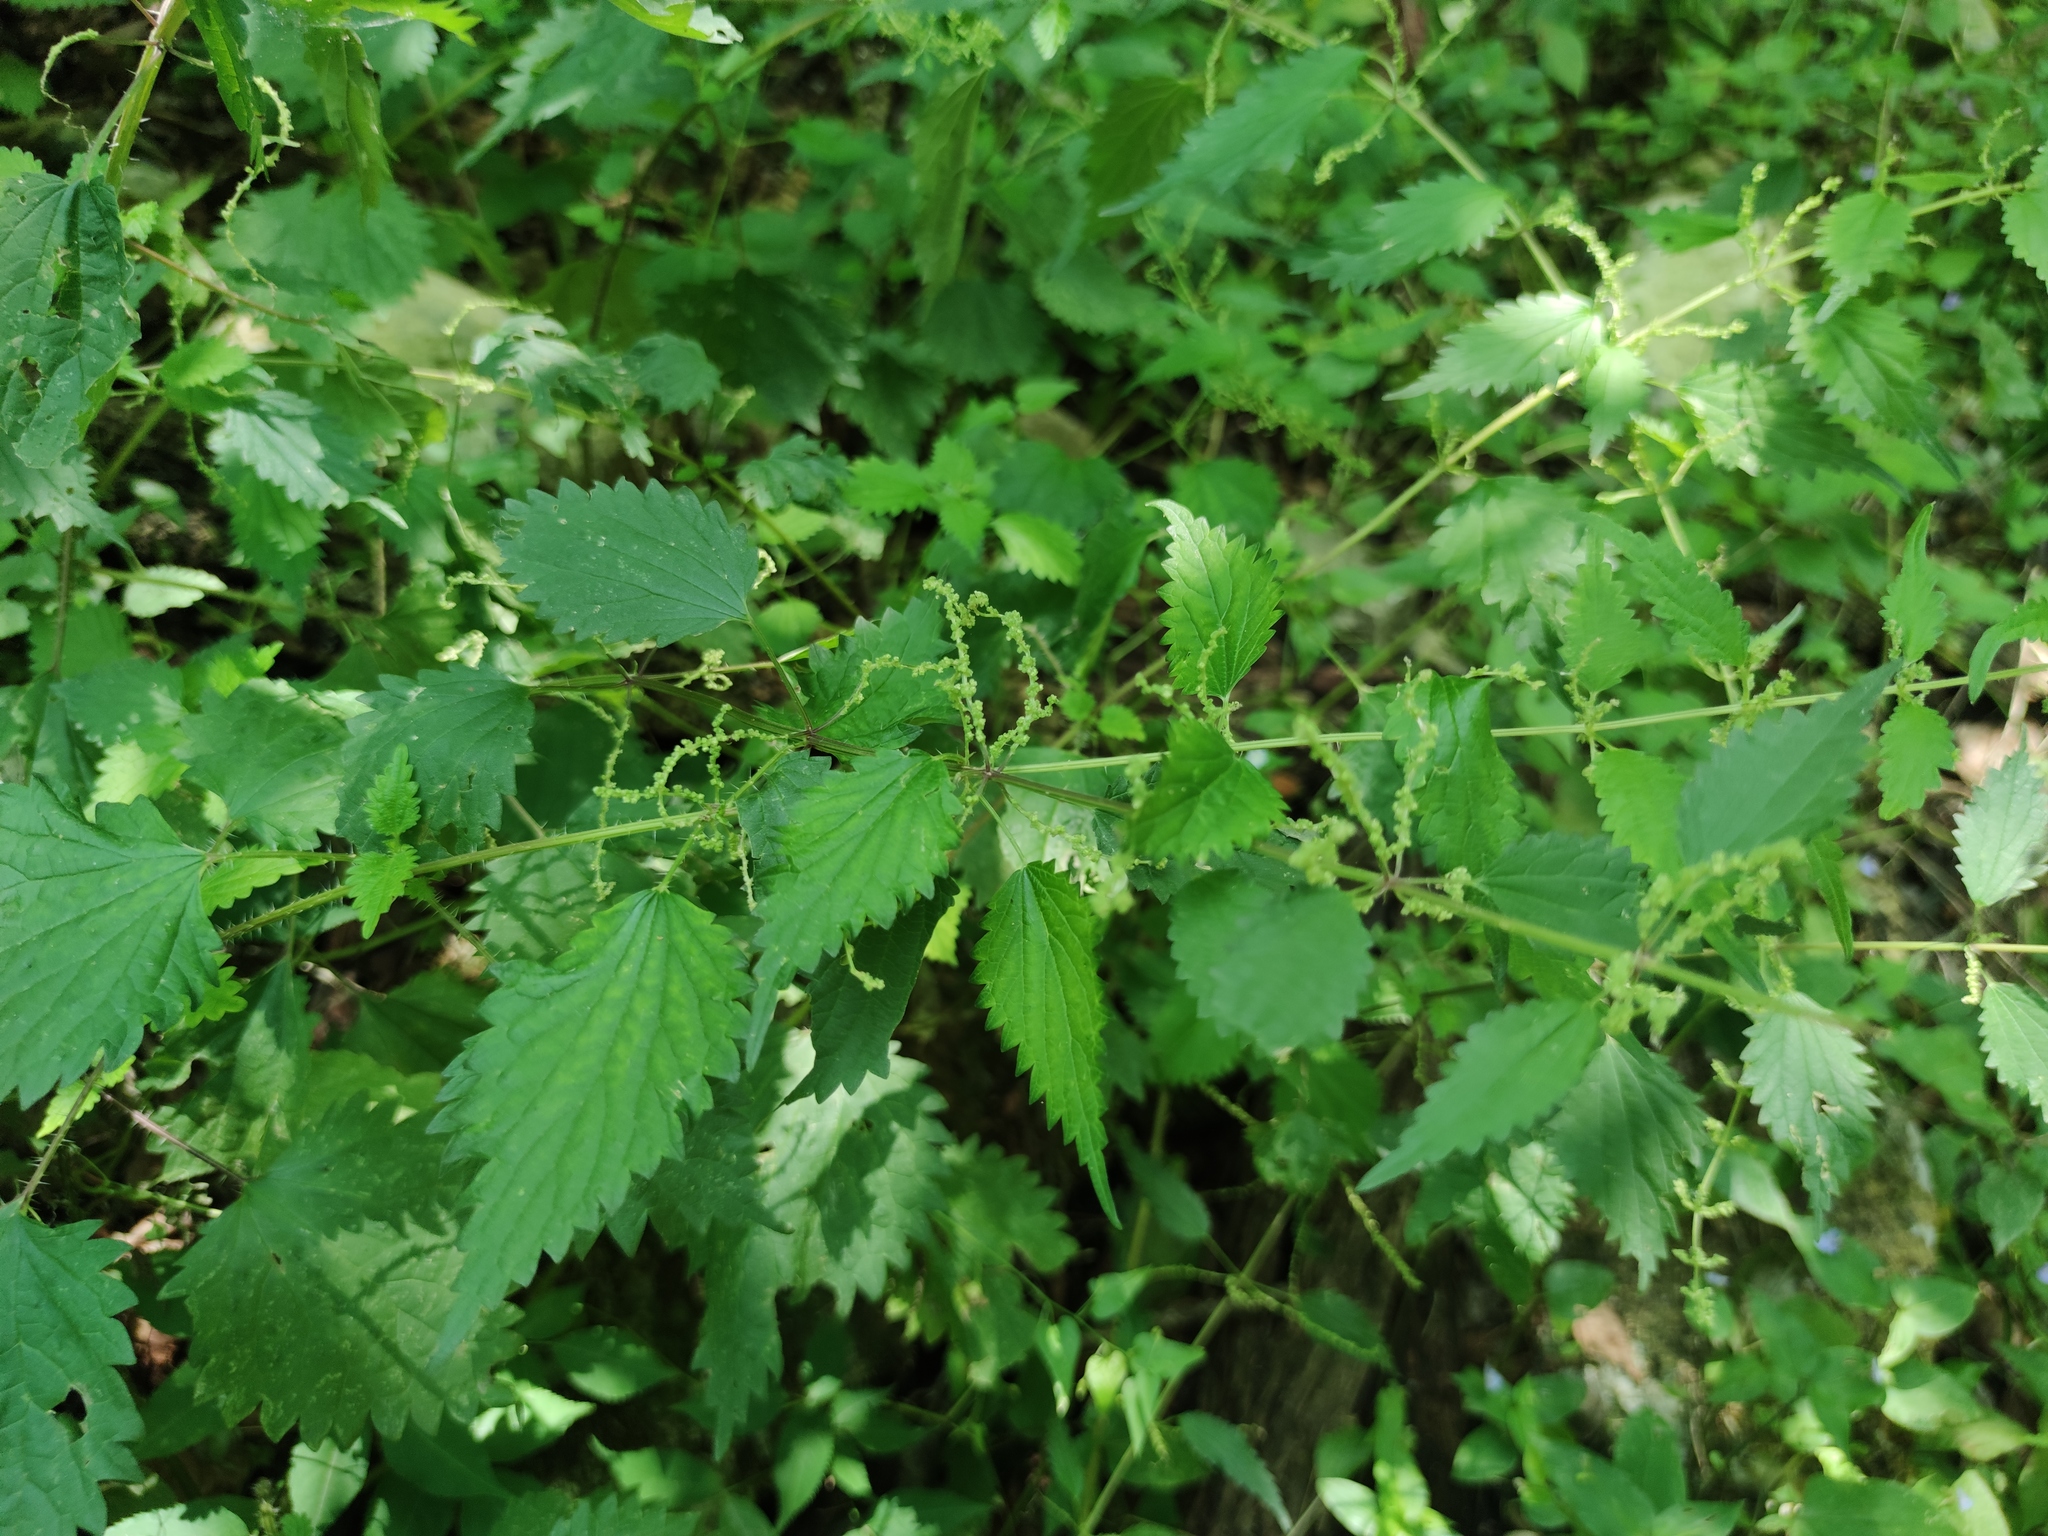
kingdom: Plantae
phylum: Tracheophyta
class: Magnoliopsida
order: Rosales
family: Urticaceae
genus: Urtica
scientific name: Urtica dioica
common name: Common nettle
